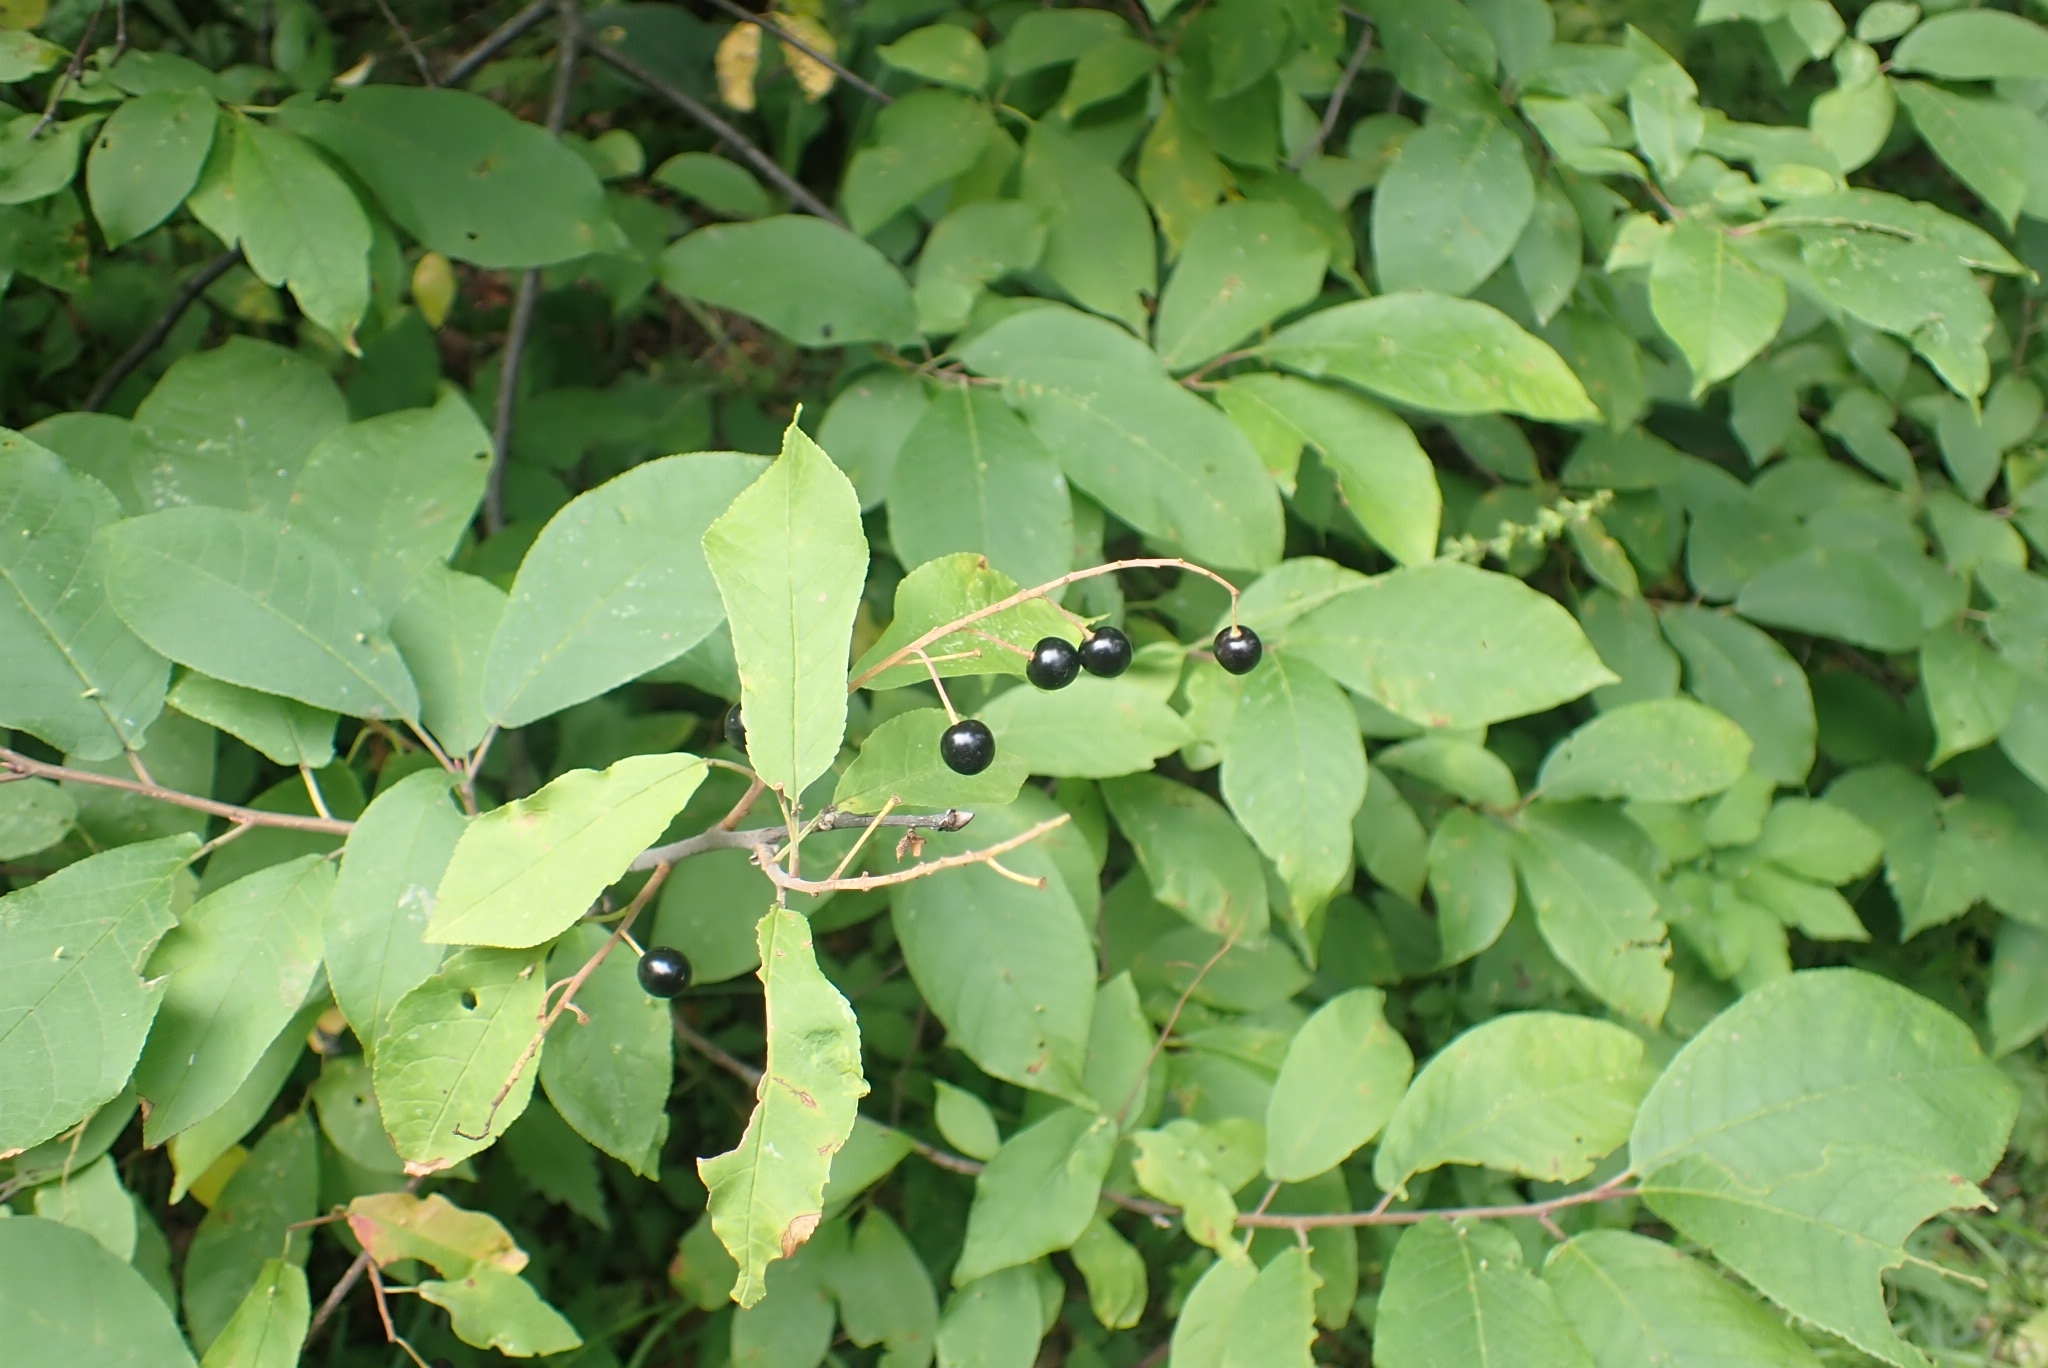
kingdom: Plantae
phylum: Tracheophyta
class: Magnoliopsida
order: Rosales
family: Rosaceae
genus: Prunus
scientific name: Prunus padus
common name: Bird cherry
